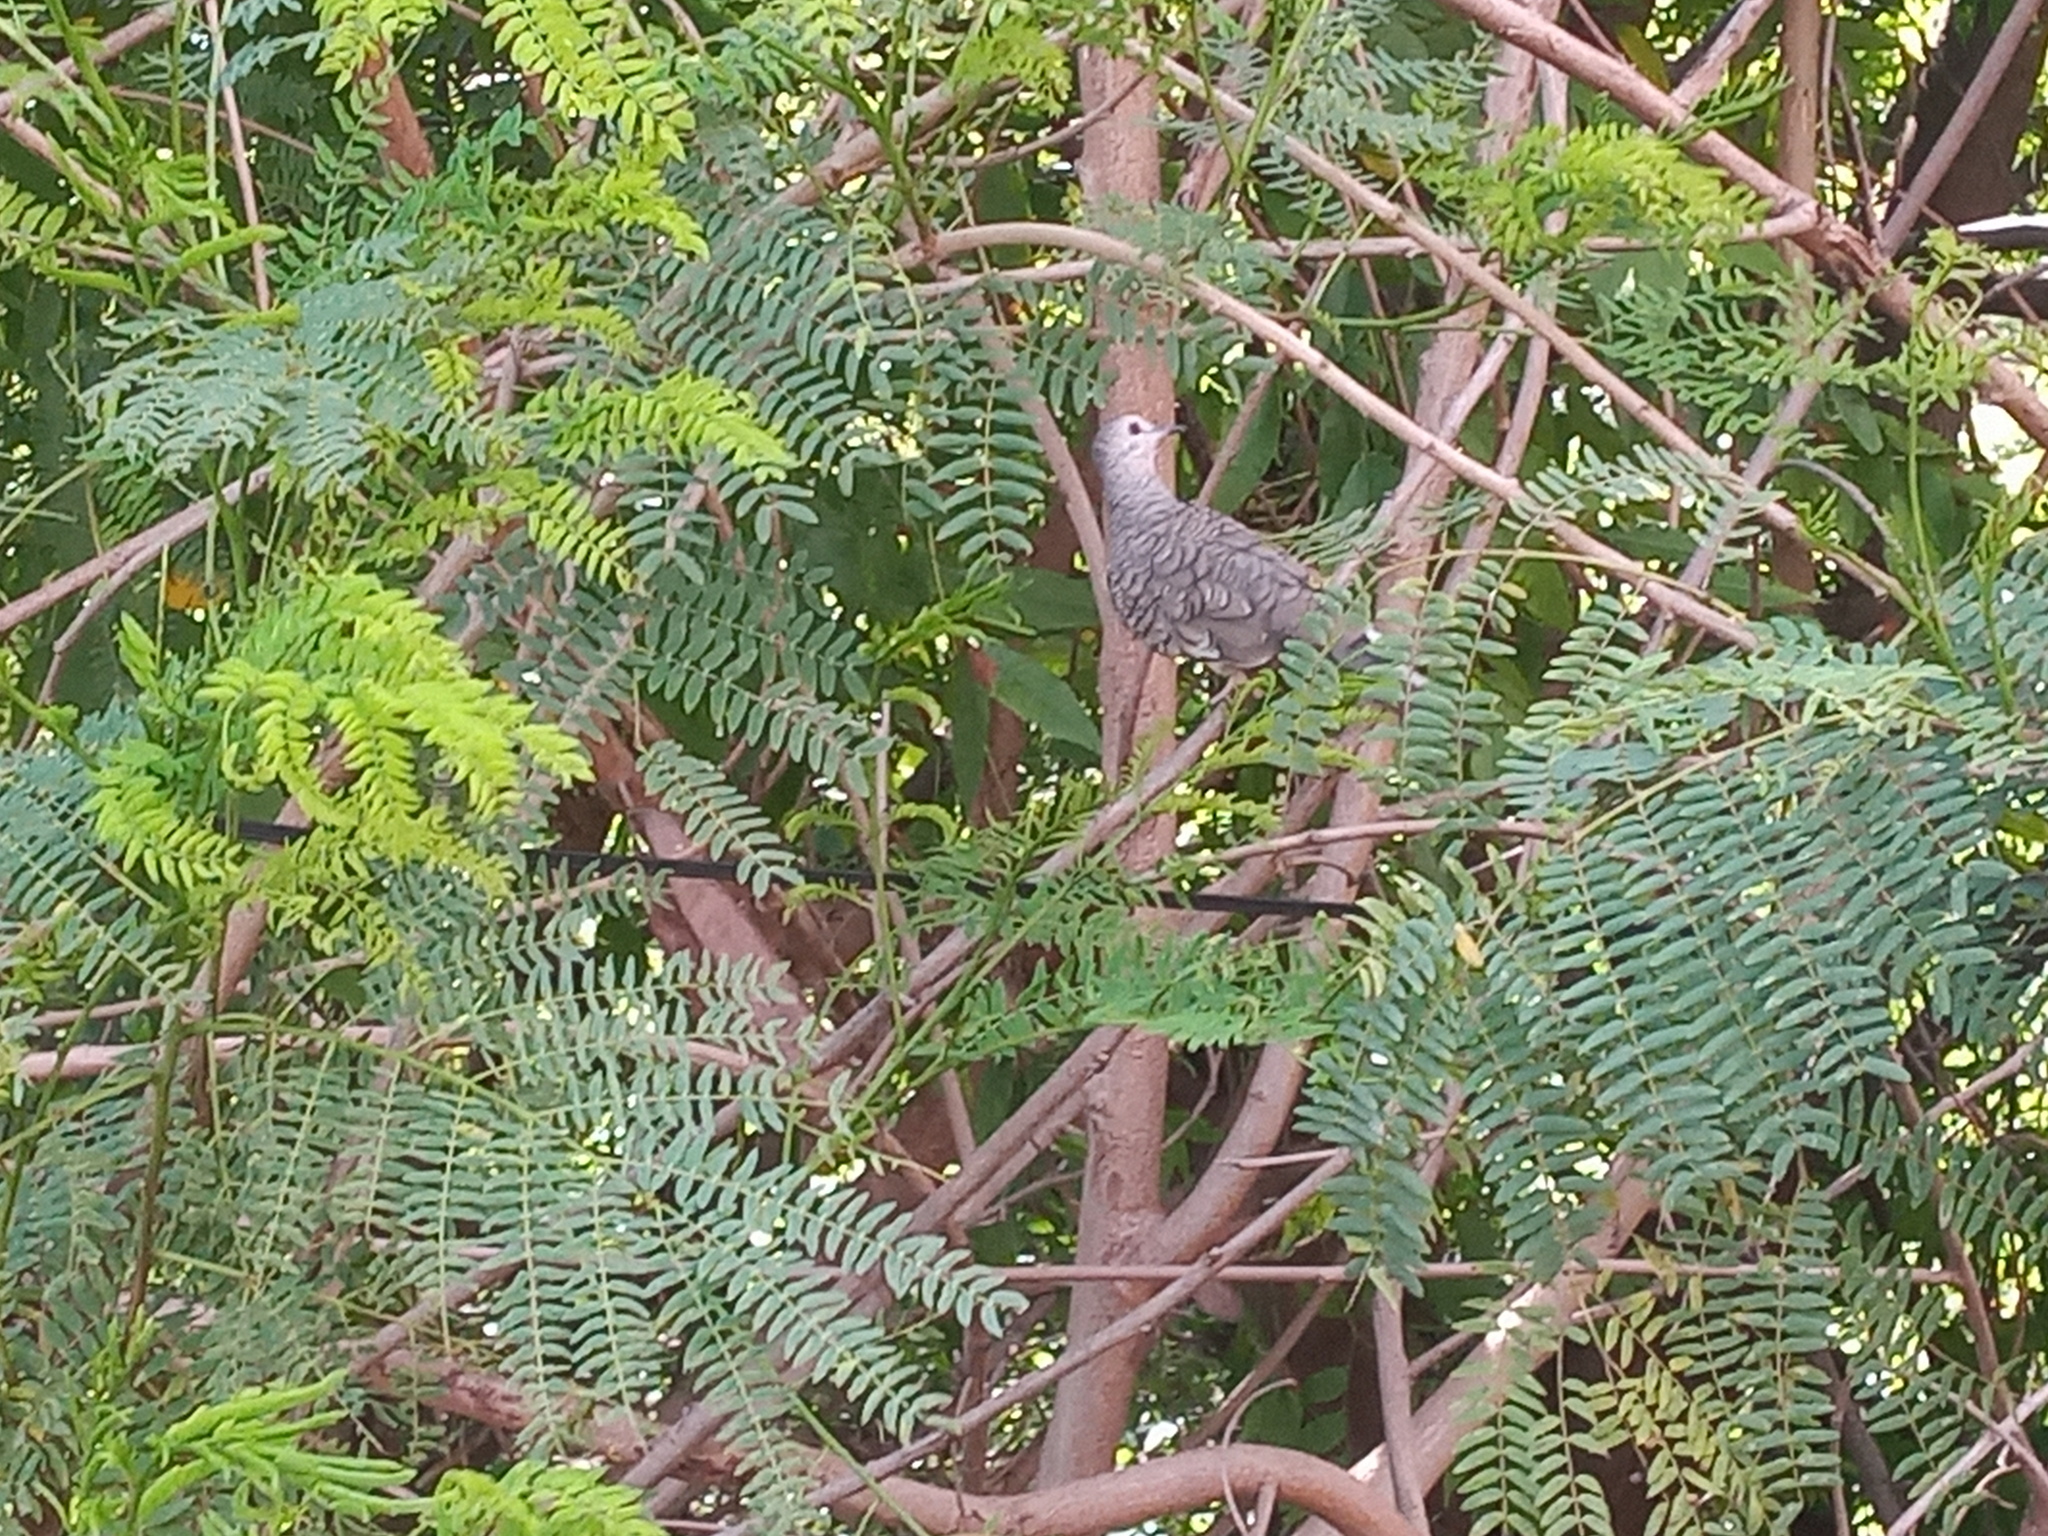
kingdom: Animalia
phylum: Chordata
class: Aves
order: Columbiformes
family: Columbidae
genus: Columbina
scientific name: Columbina inca
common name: Inca dove
